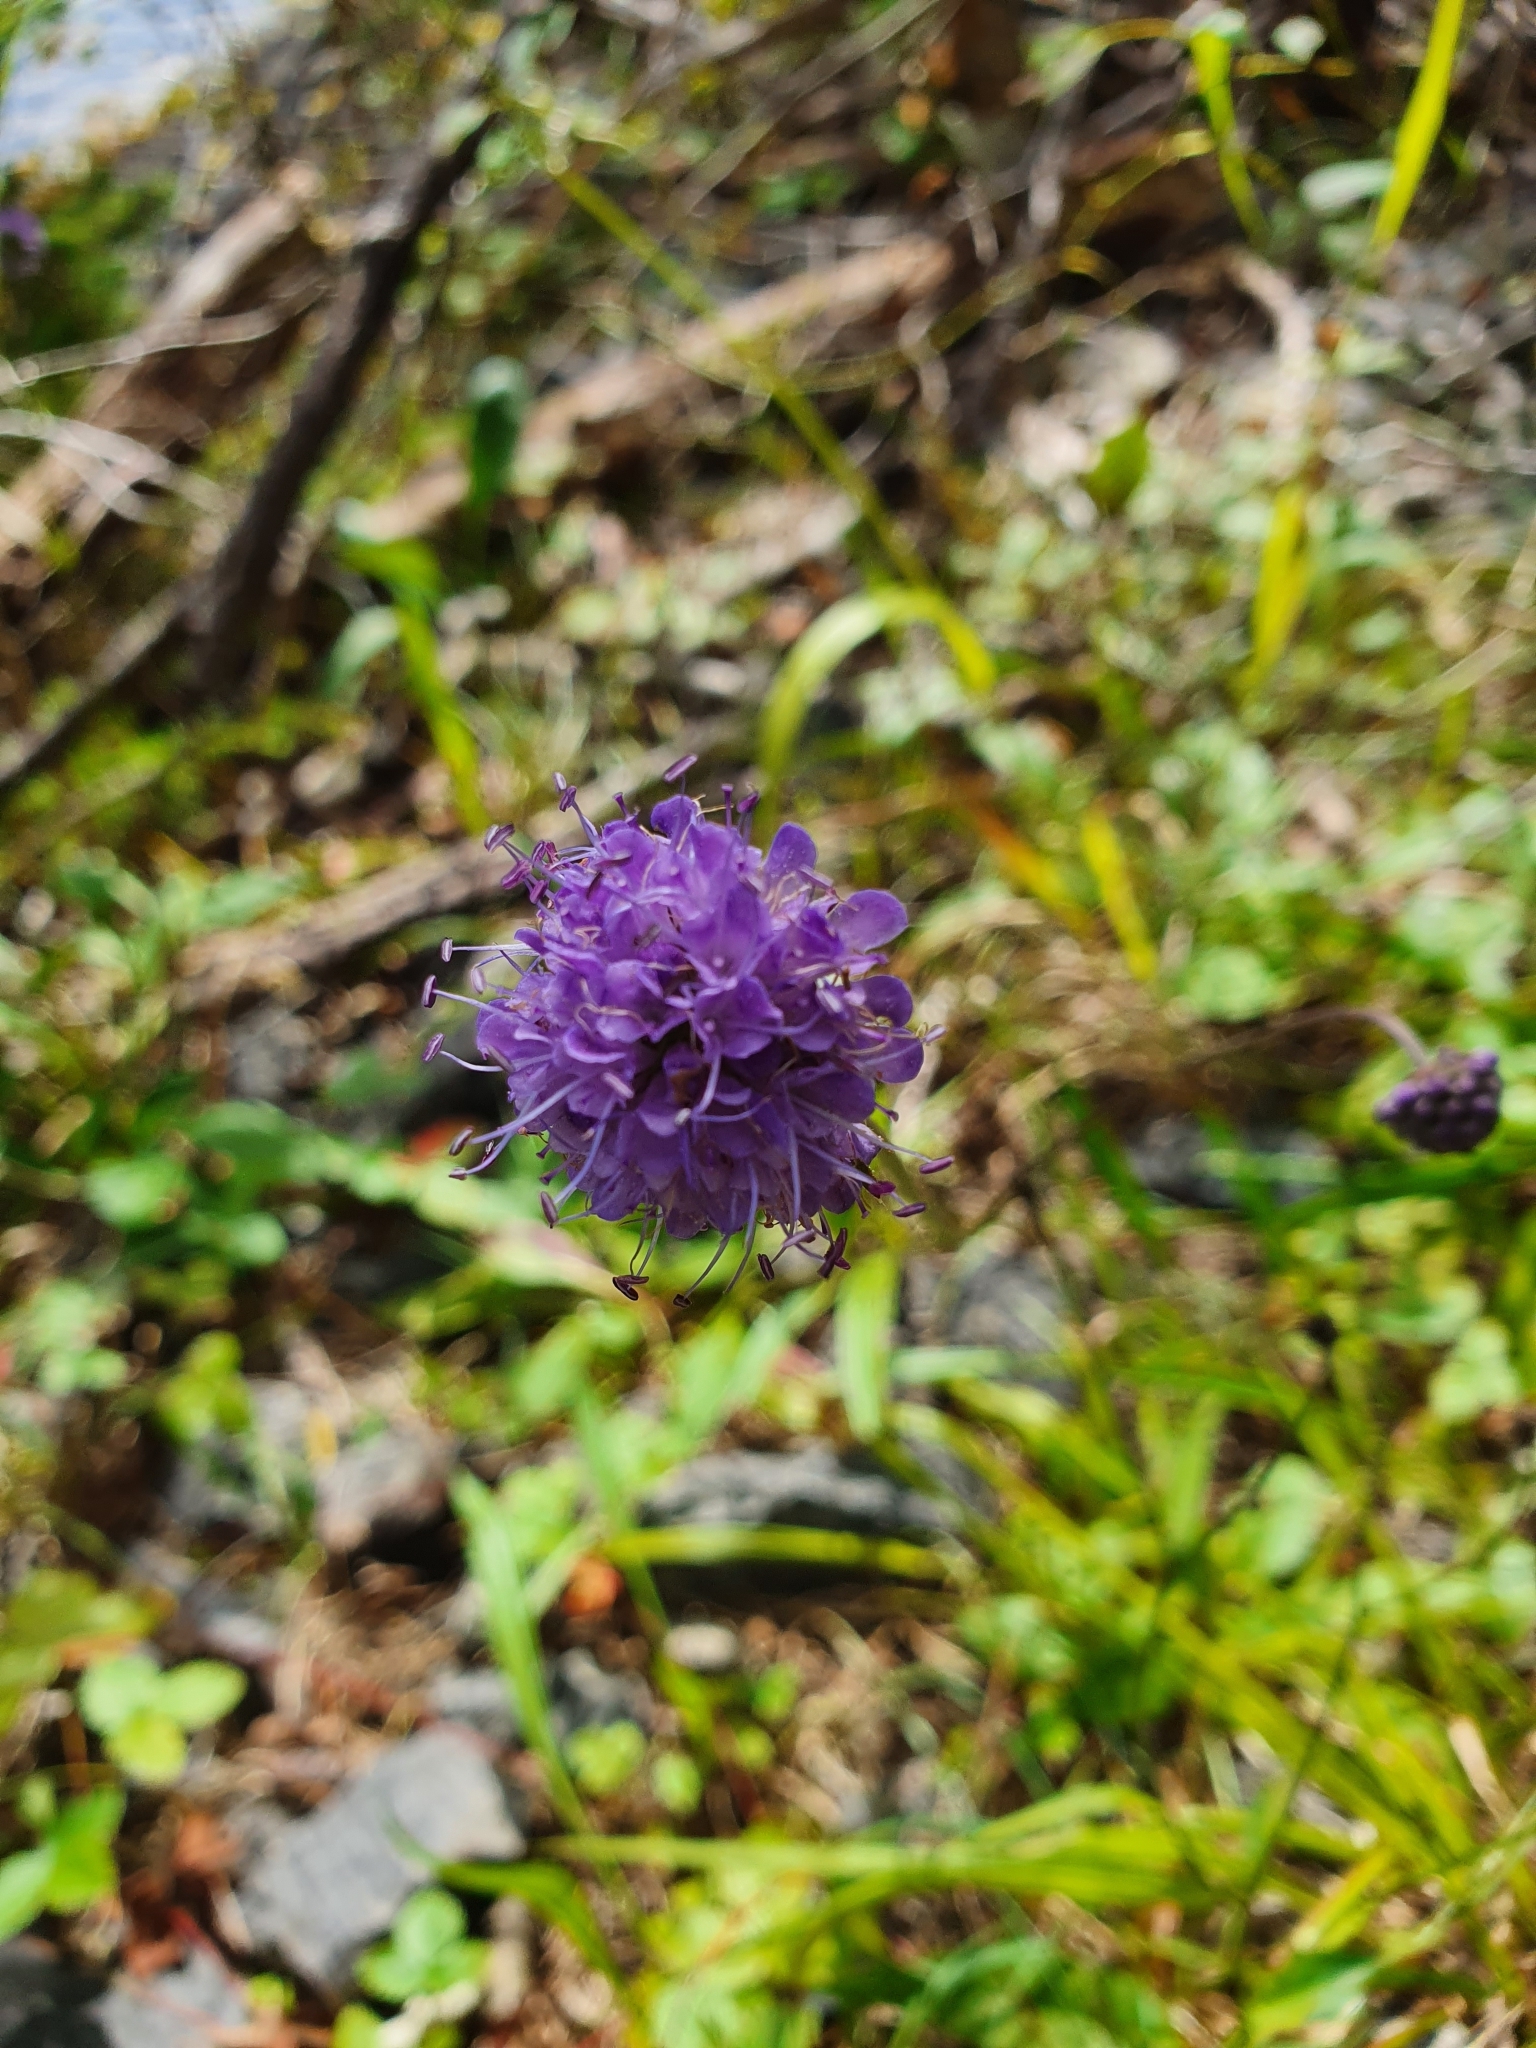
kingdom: Plantae
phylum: Tracheophyta
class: Magnoliopsida
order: Dipsacales
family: Caprifoliaceae
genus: Succisa
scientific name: Succisa pratensis
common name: Devil's-bit
